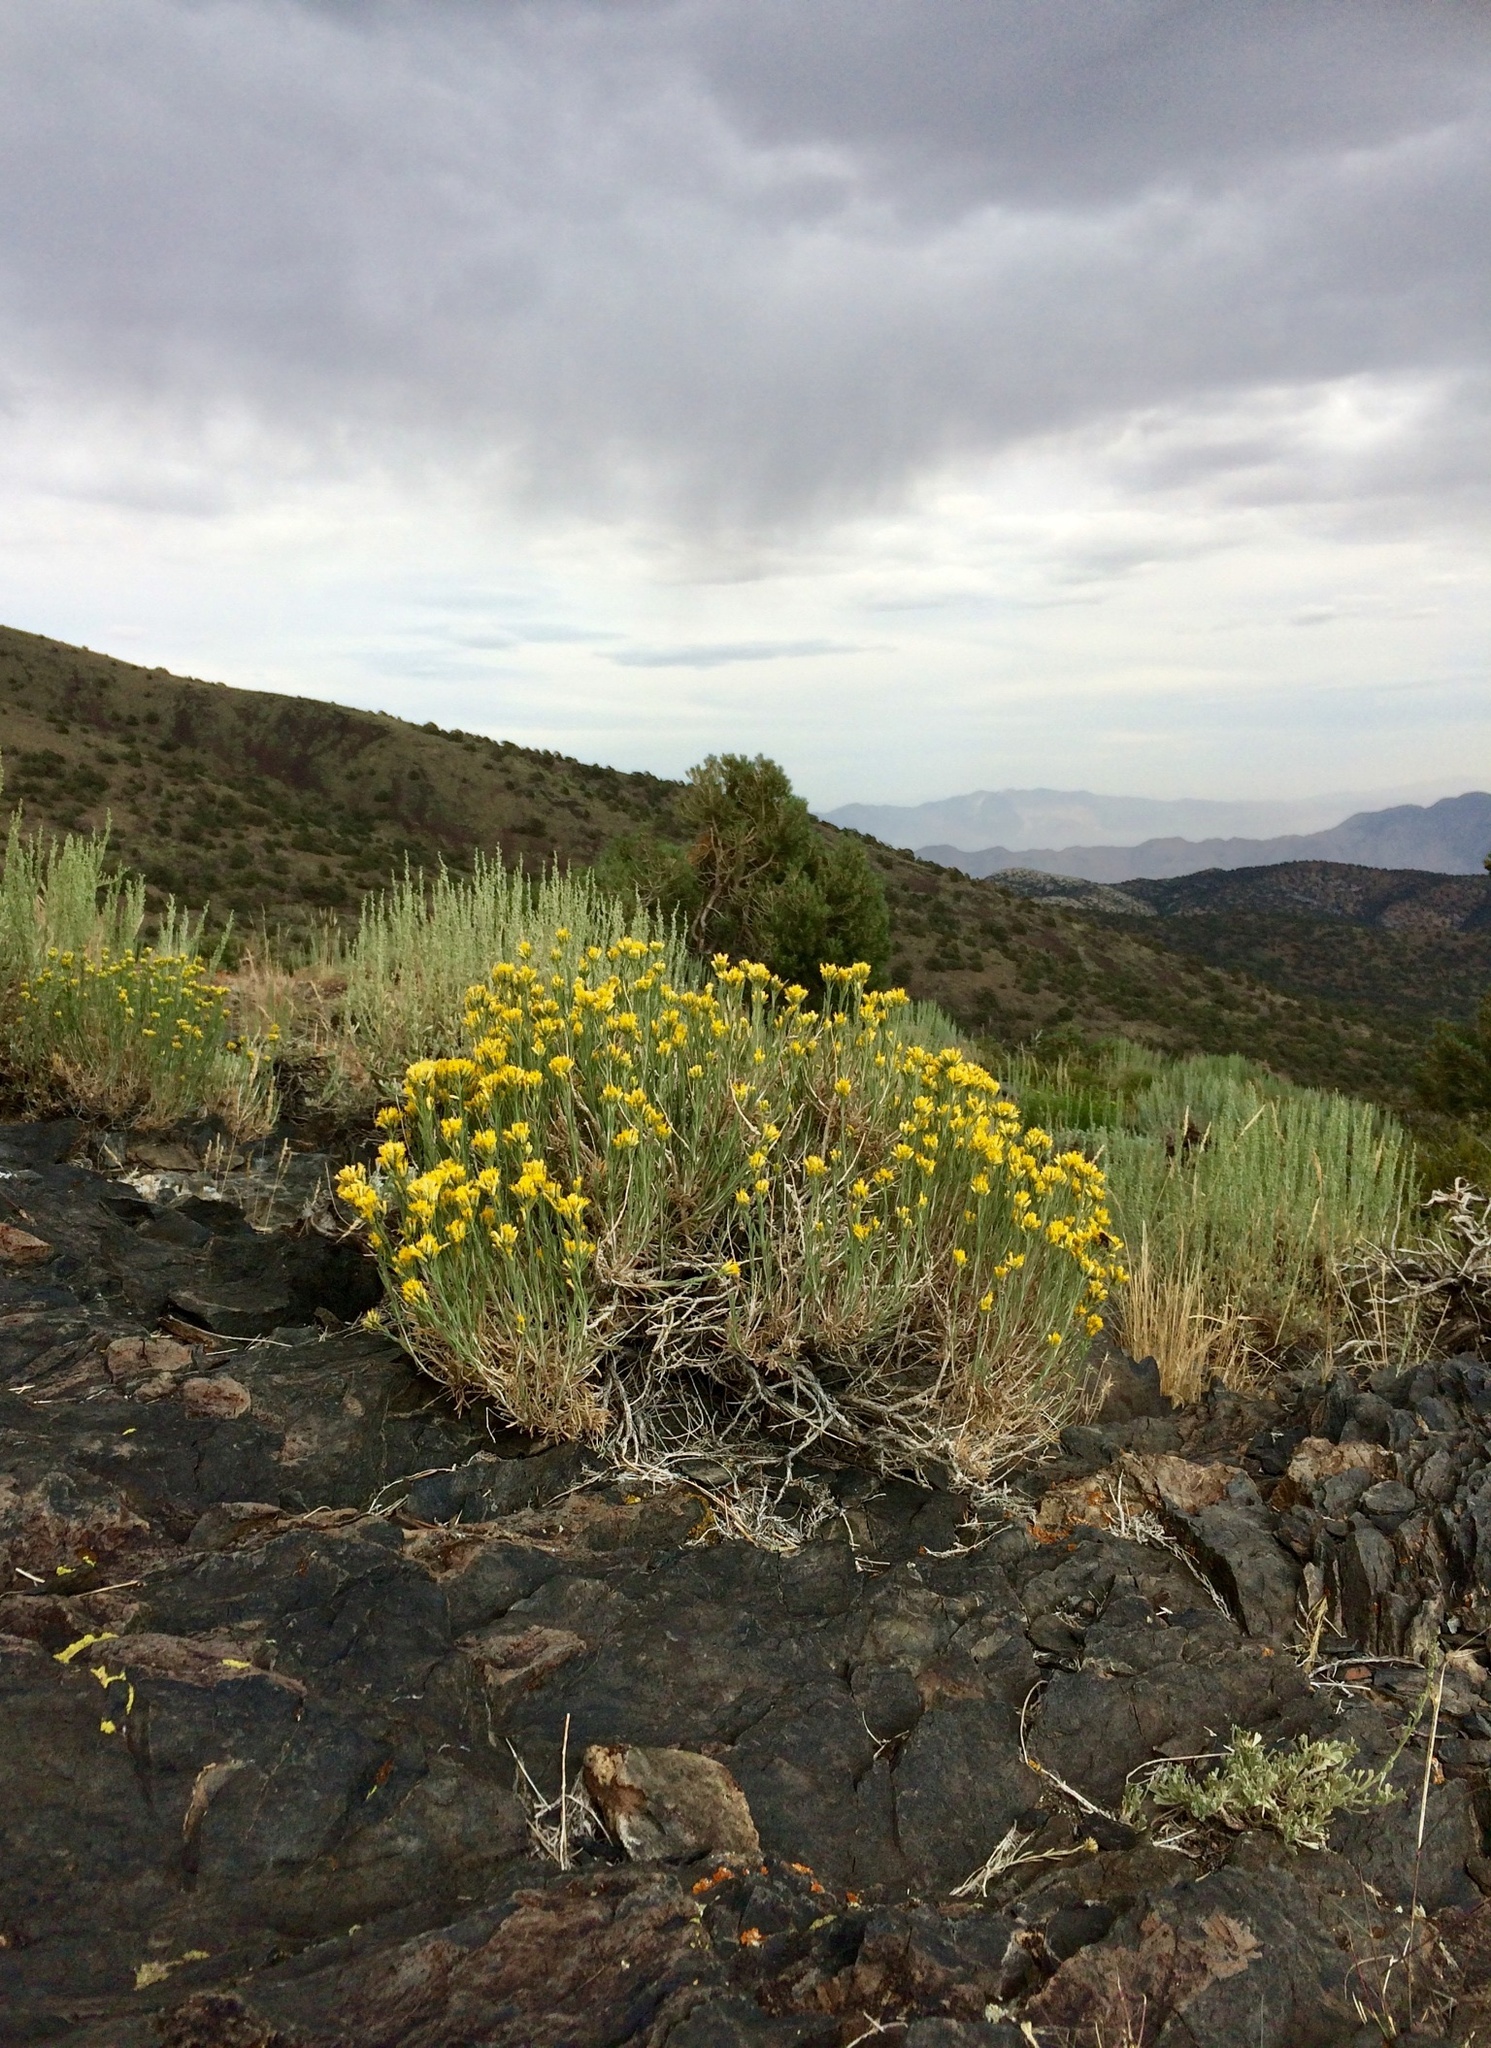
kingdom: Plantae
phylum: Tracheophyta
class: Magnoliopsida
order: Asterales
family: Asteraceae
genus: Chrysothamnus
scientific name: Chrysothamnus viscidiflorus
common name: Yellow rabbitbrush
